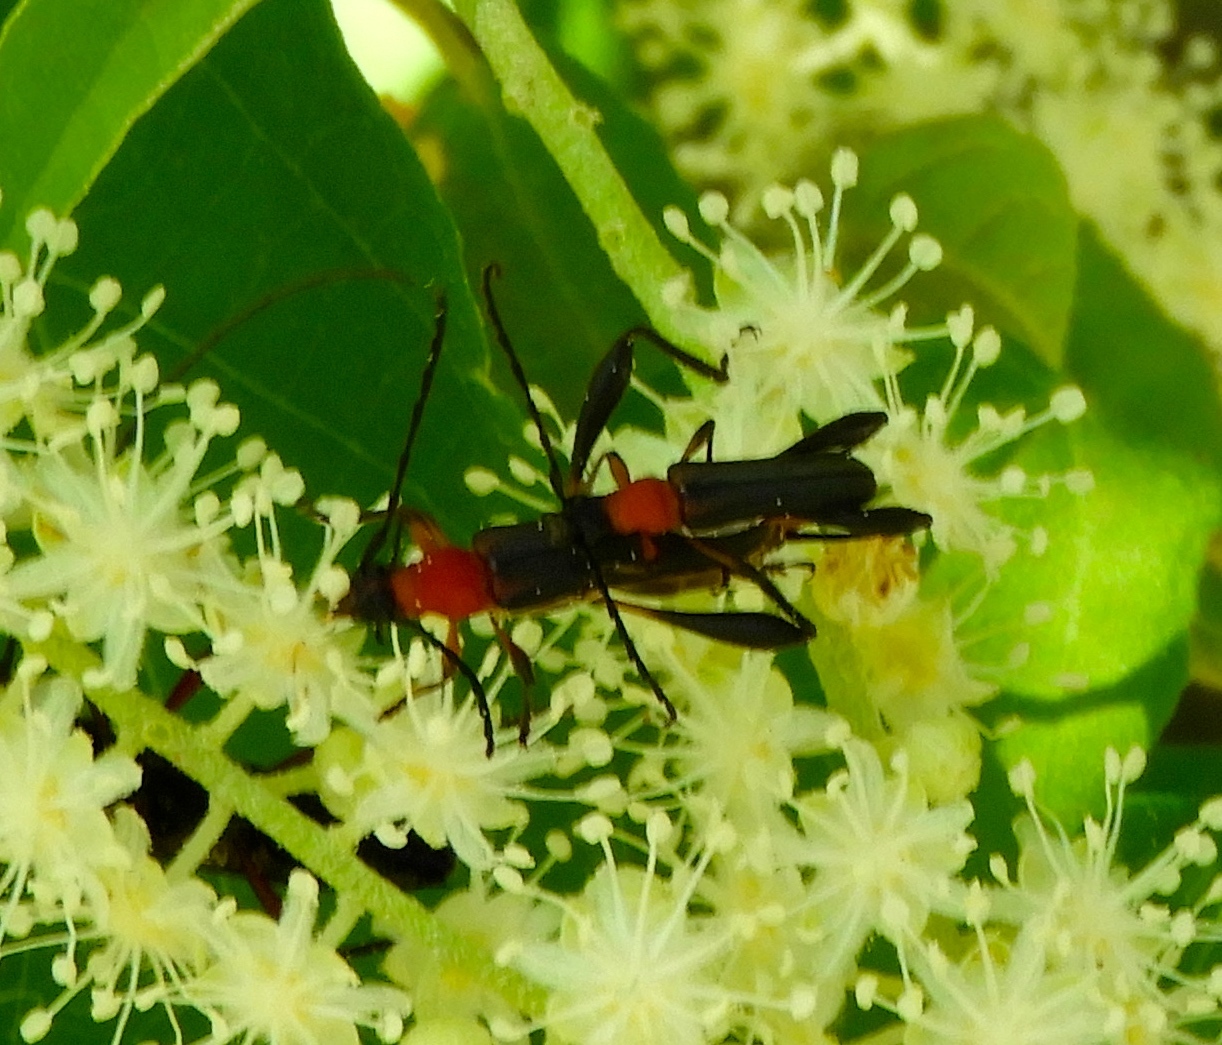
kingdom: Animalia
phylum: Arthropoda
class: Insecta
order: Coleoptera
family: Cerambycidae
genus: Pachymerola
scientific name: Pachymerola ruficollis
